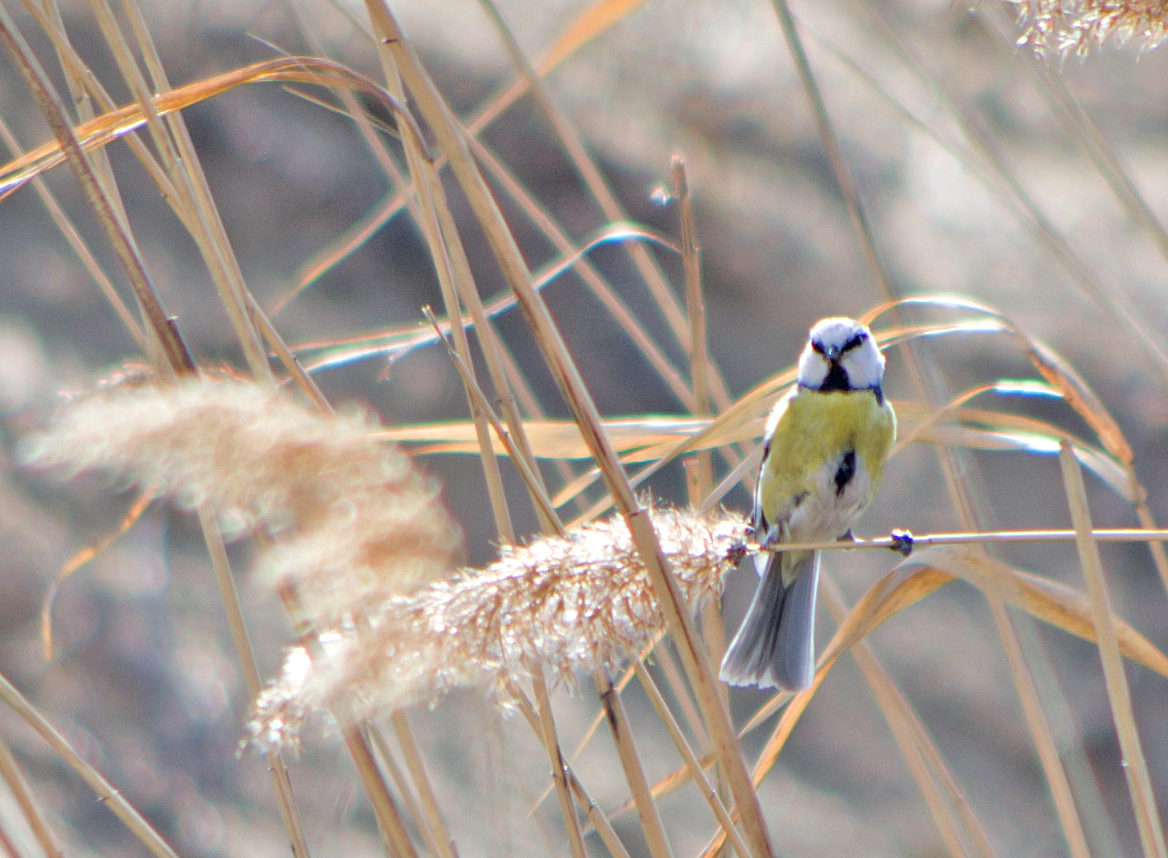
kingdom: Animalia
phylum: Chordata
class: Aves
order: Passeriformes
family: Paridae
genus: Cyanistes
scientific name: Cyanistes caeruleus
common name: Eurasian blue tit
